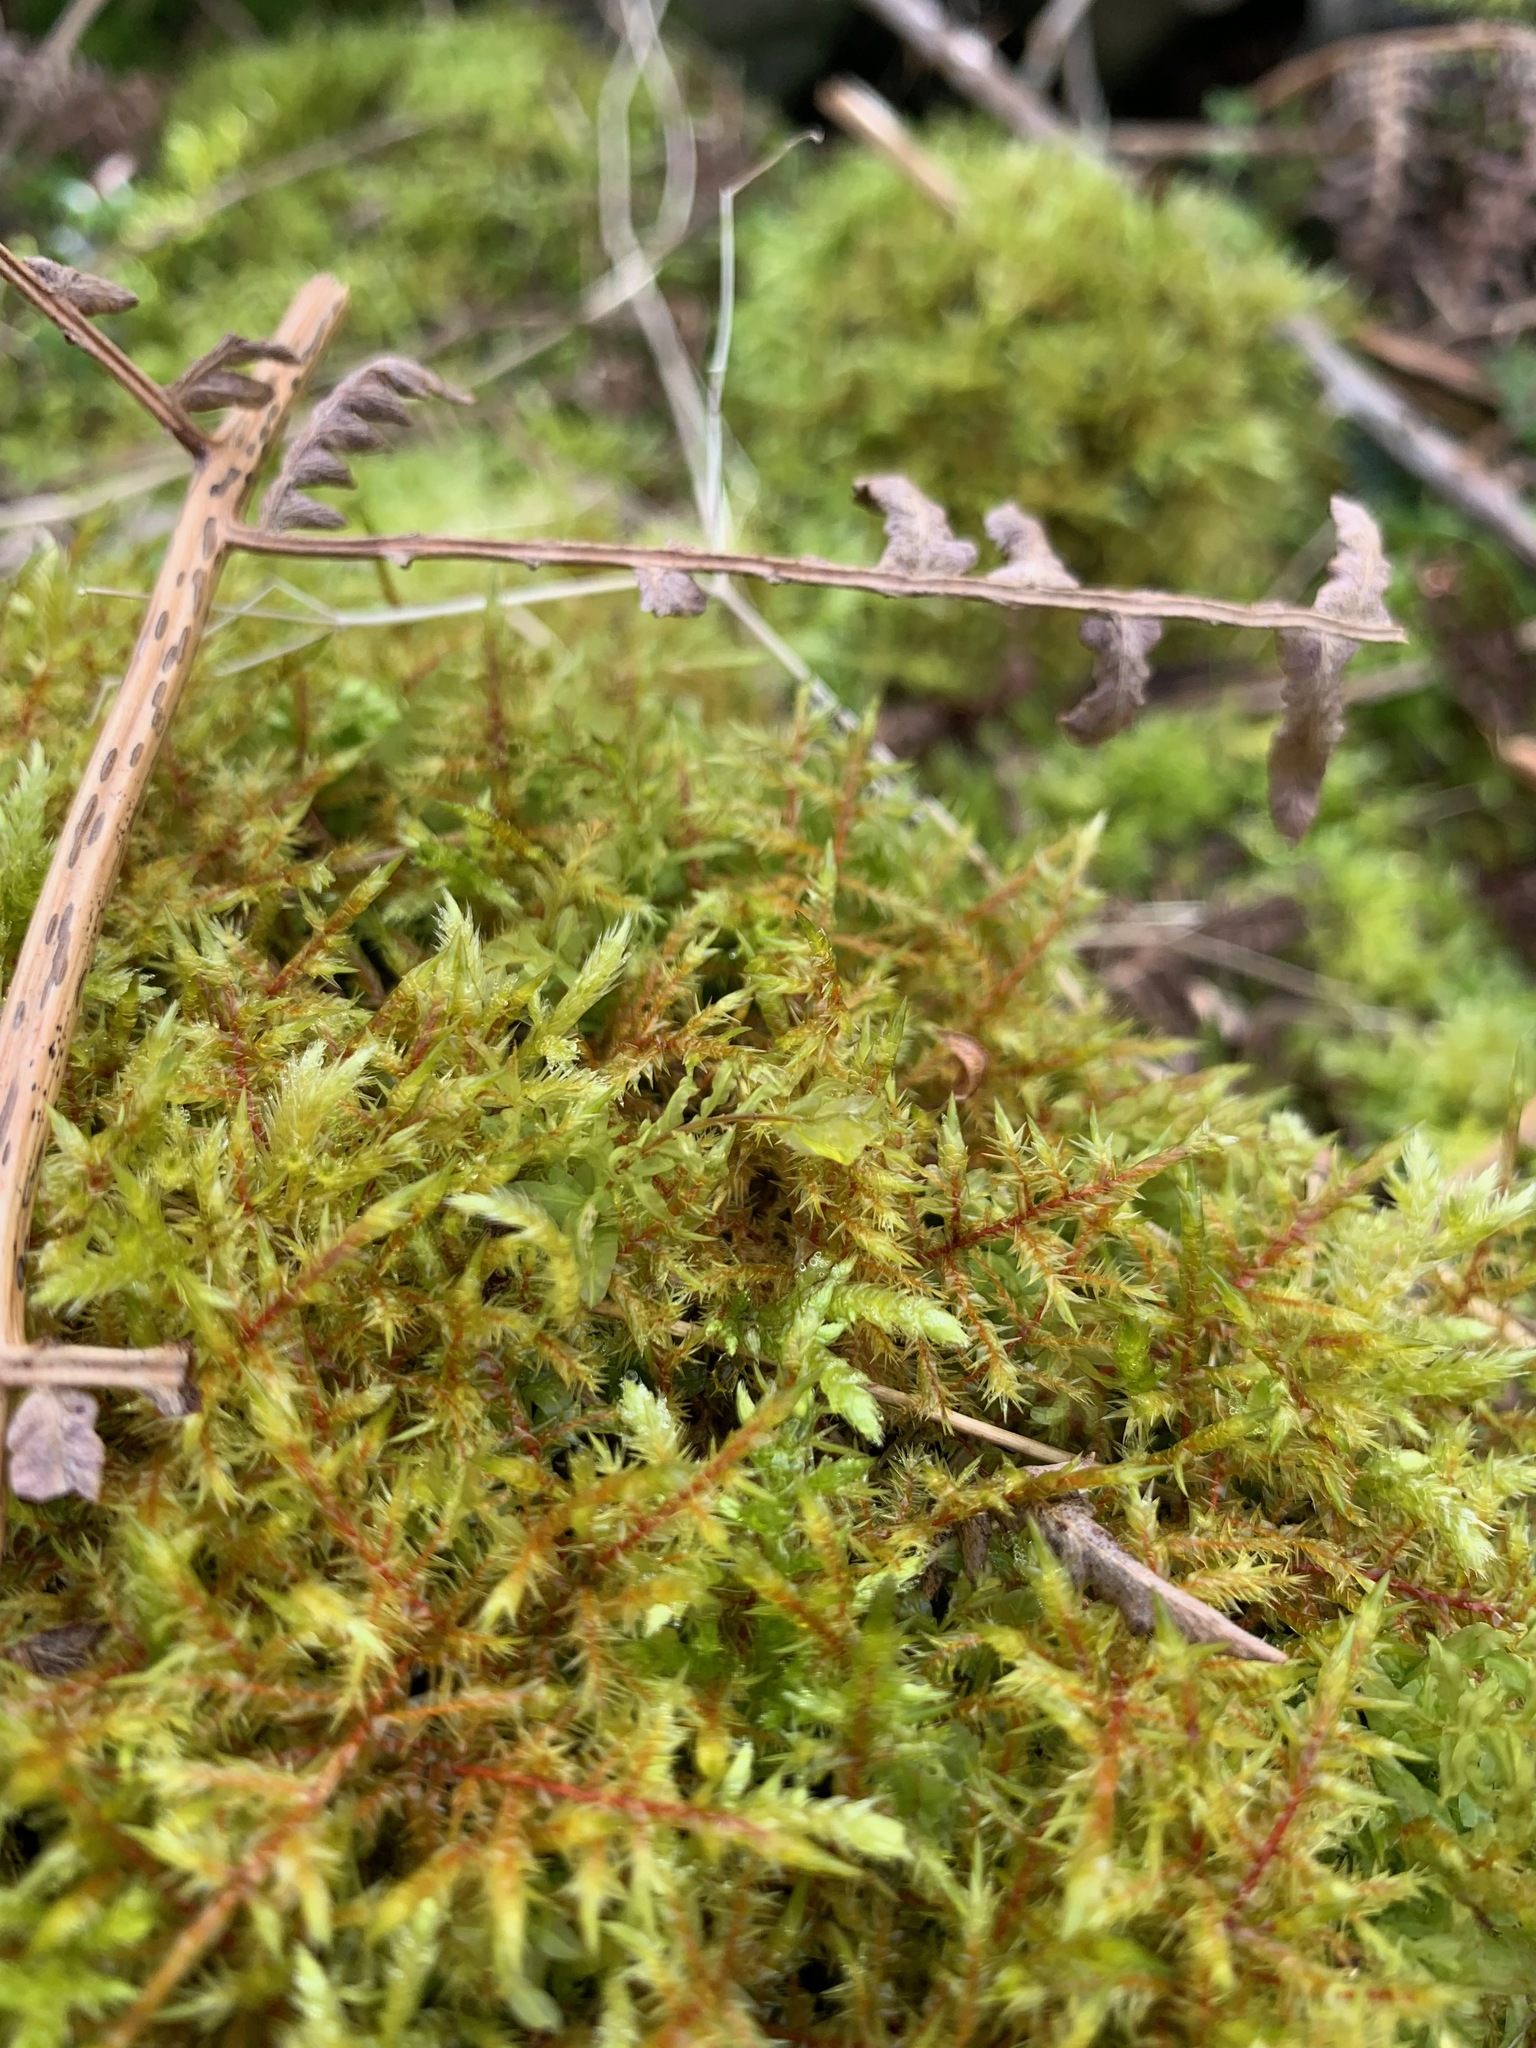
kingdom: Plantae
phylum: Bryophyta
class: Bryopsida
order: Hypnales
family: Pylaisiaceae
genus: Calliergonella
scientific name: Calliergonella cuspidata
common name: Common large wetland moss
